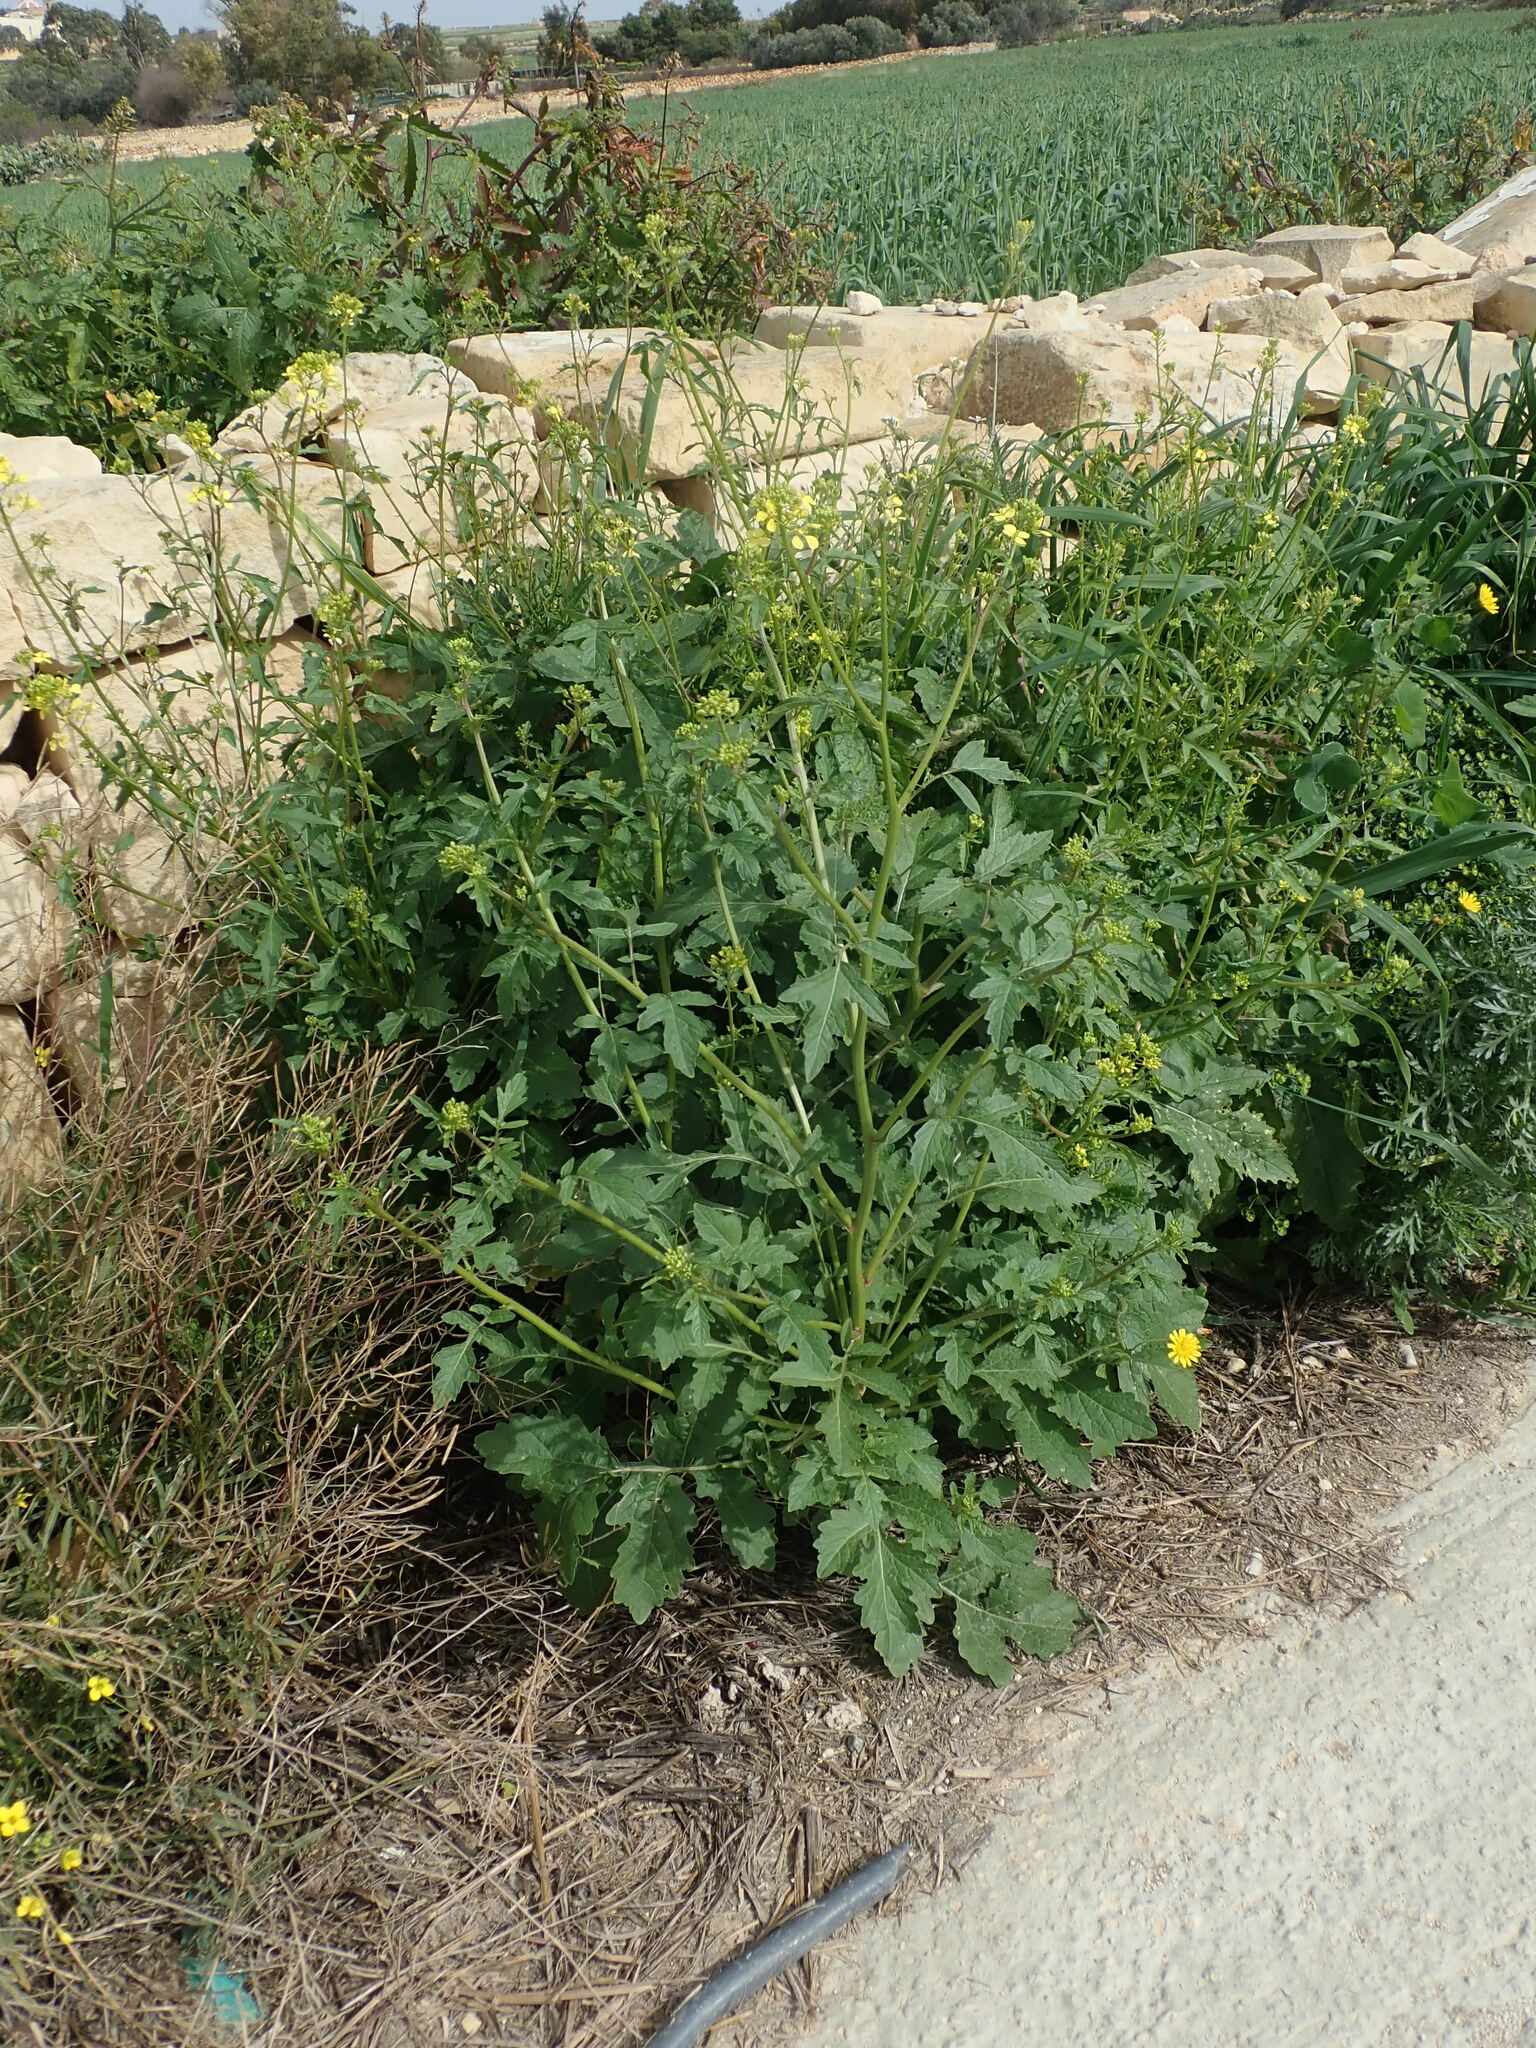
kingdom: Plantae
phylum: Tracheophyta
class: Magnoliopsida
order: Brassicales
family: Brassicaceae
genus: Sinapis
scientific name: Sinapis alba
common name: White mustard
